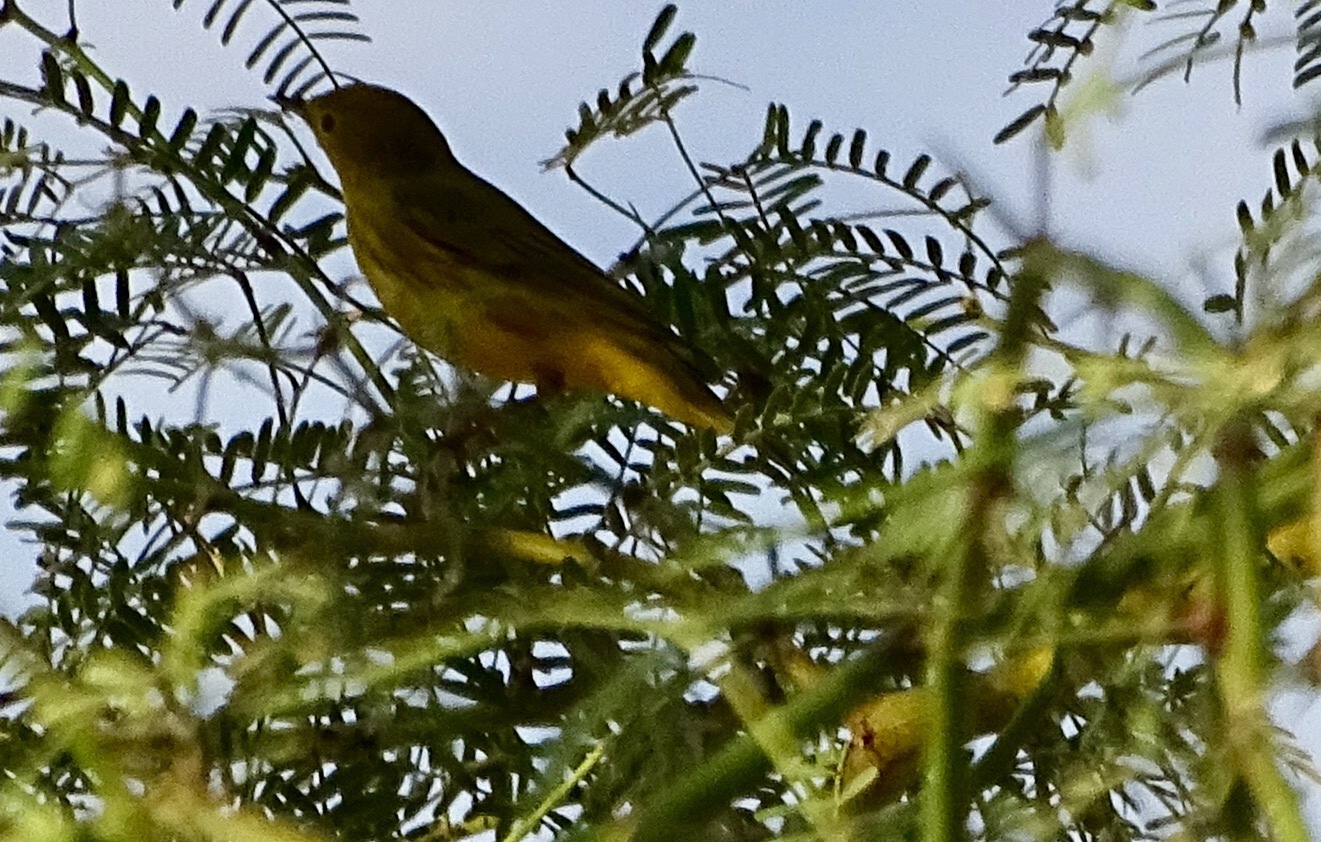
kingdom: Animalia
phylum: Chordata
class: Aves
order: Passeriformes
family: Parulidae
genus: Setophaga
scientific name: Setophaga petechia
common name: Yellow warbler
